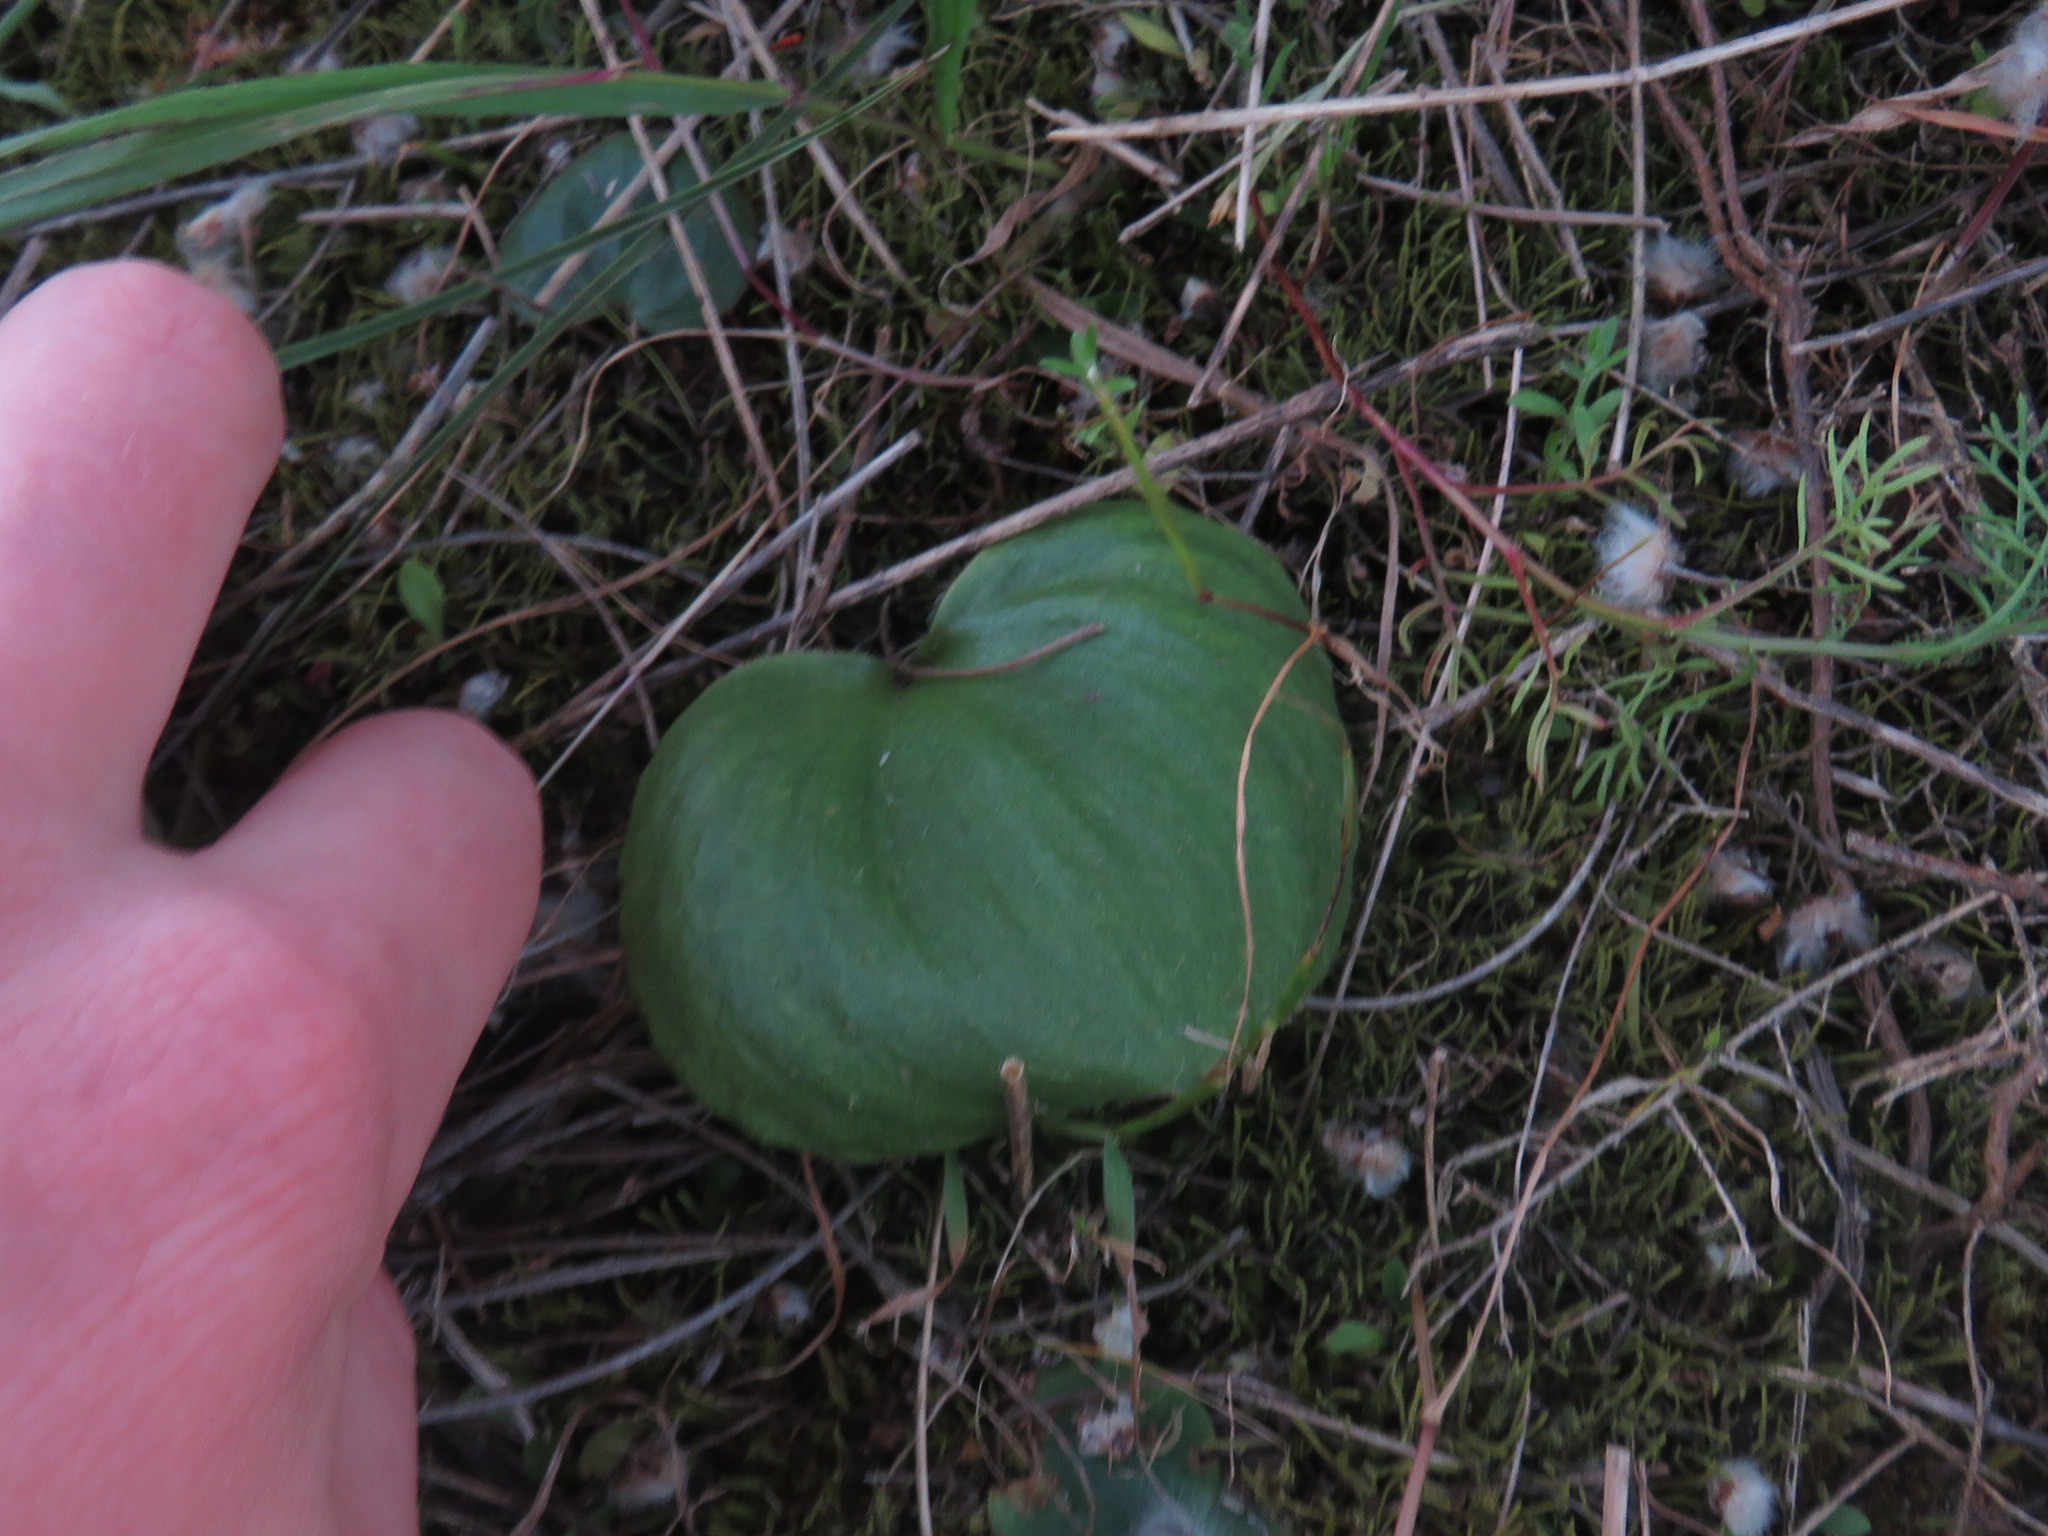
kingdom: Plantae
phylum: Tracheophyta
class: Liliopsida
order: Asparagales
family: Asparagaceae
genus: Eriospermum
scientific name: Eriospermum capense
